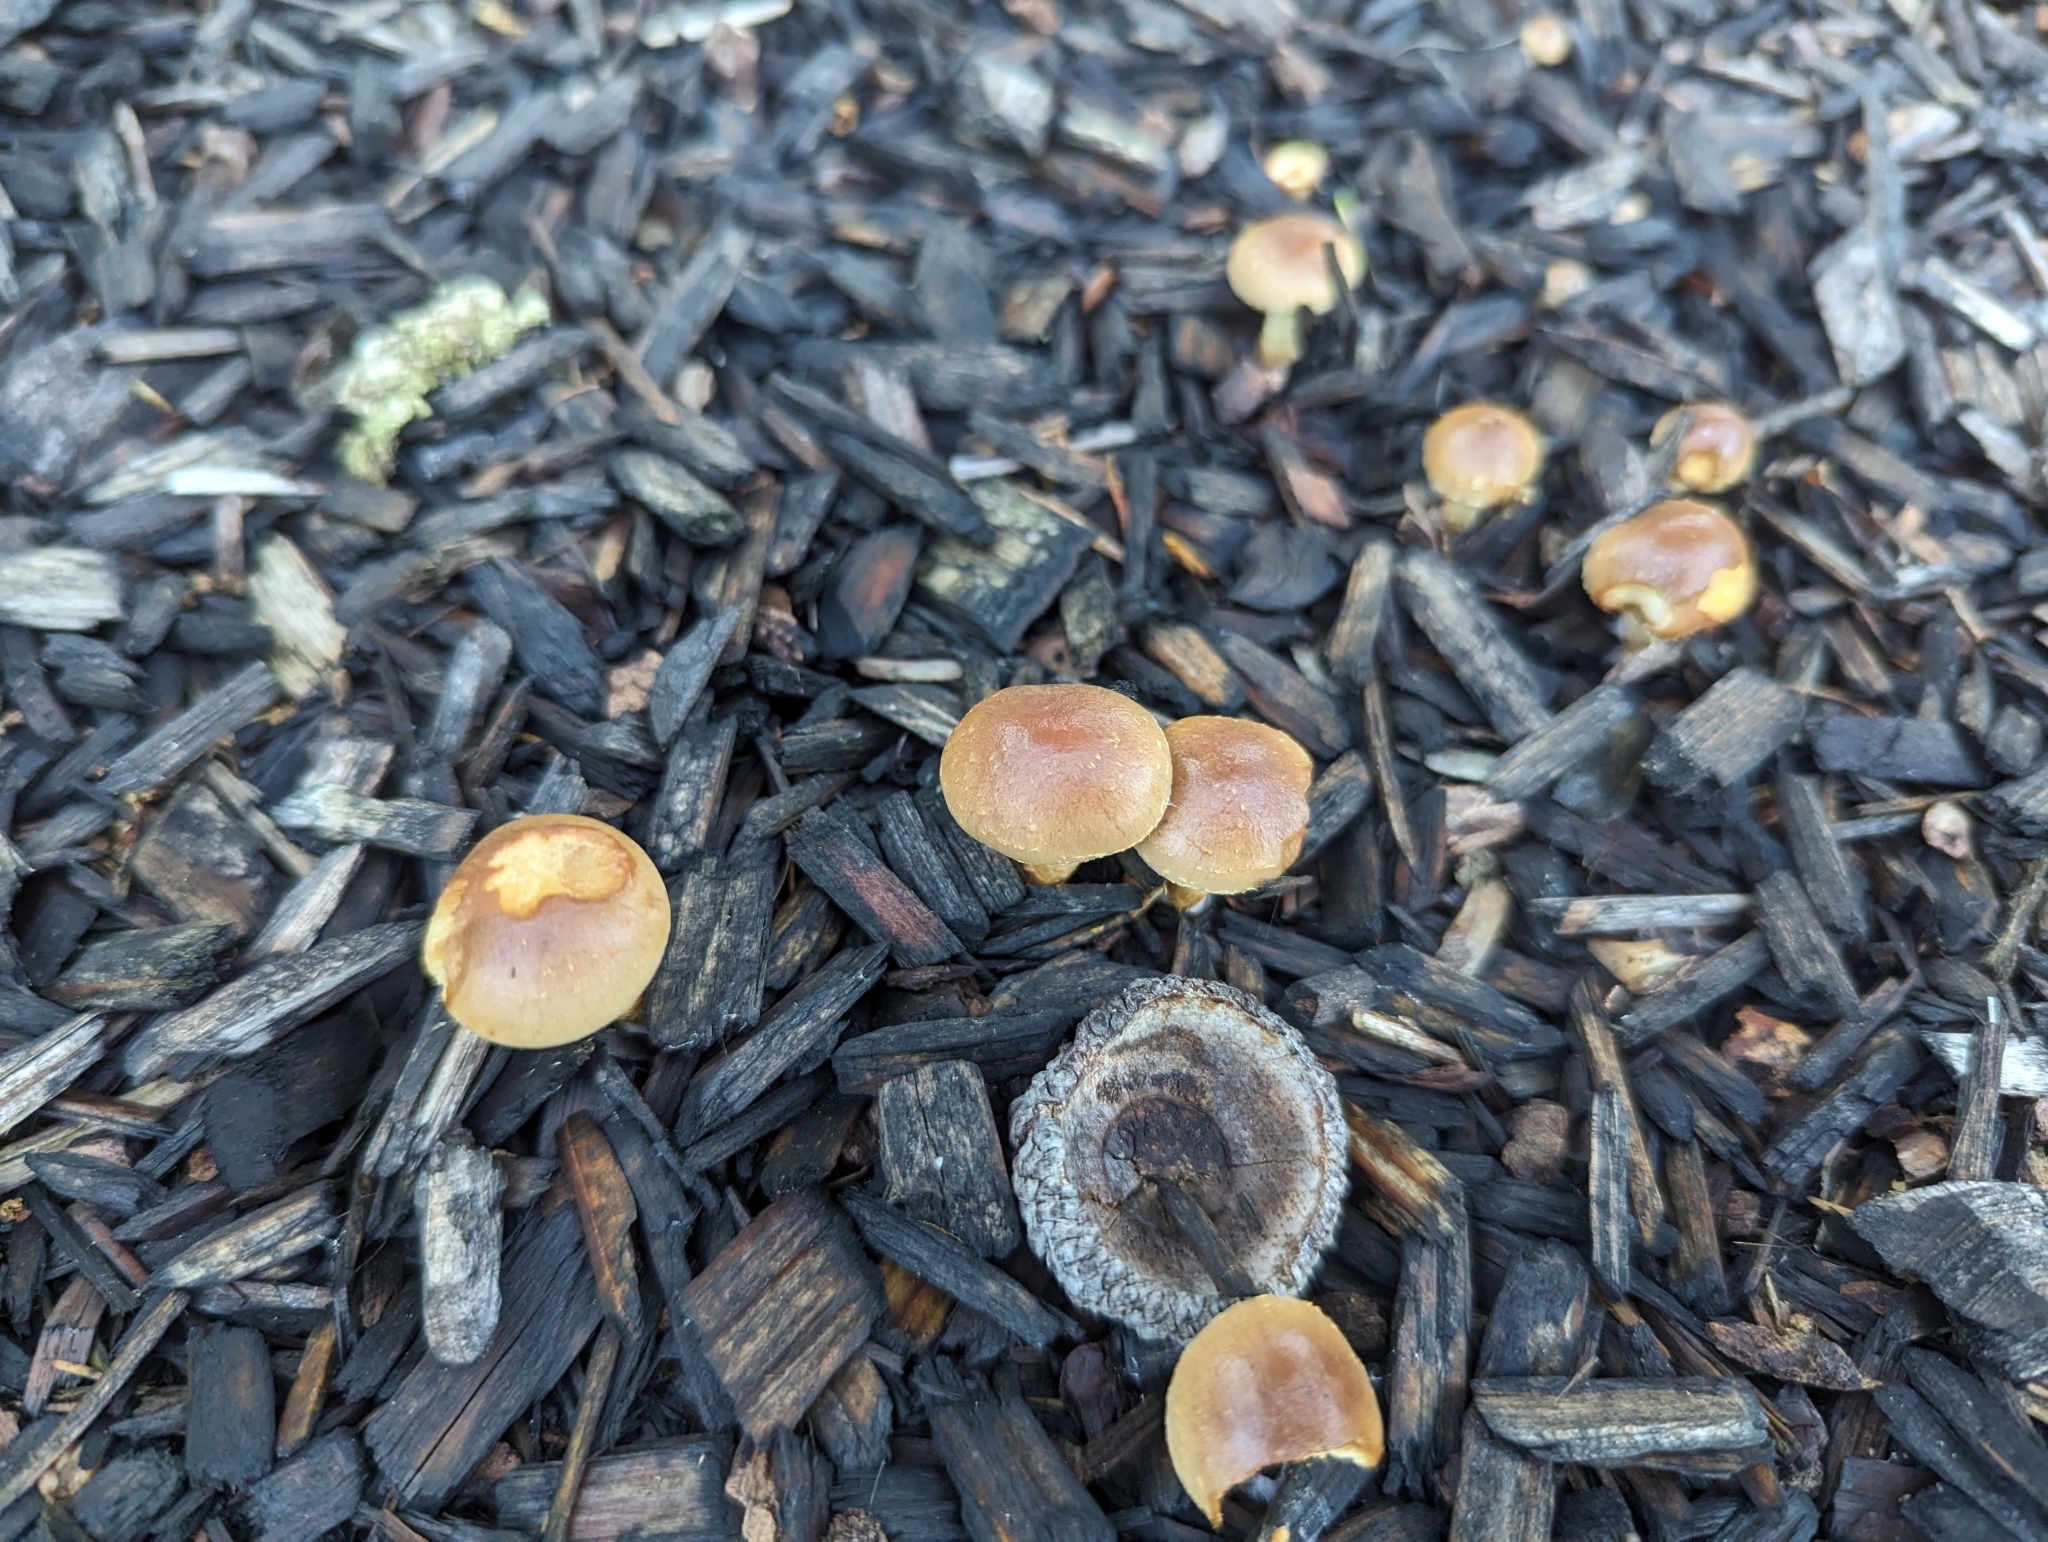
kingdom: Fungi
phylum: Basidiomycota
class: Agaricomycetes
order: Agaricales
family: Strophariaceae
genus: Pholiota
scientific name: Pholiota spumosa
